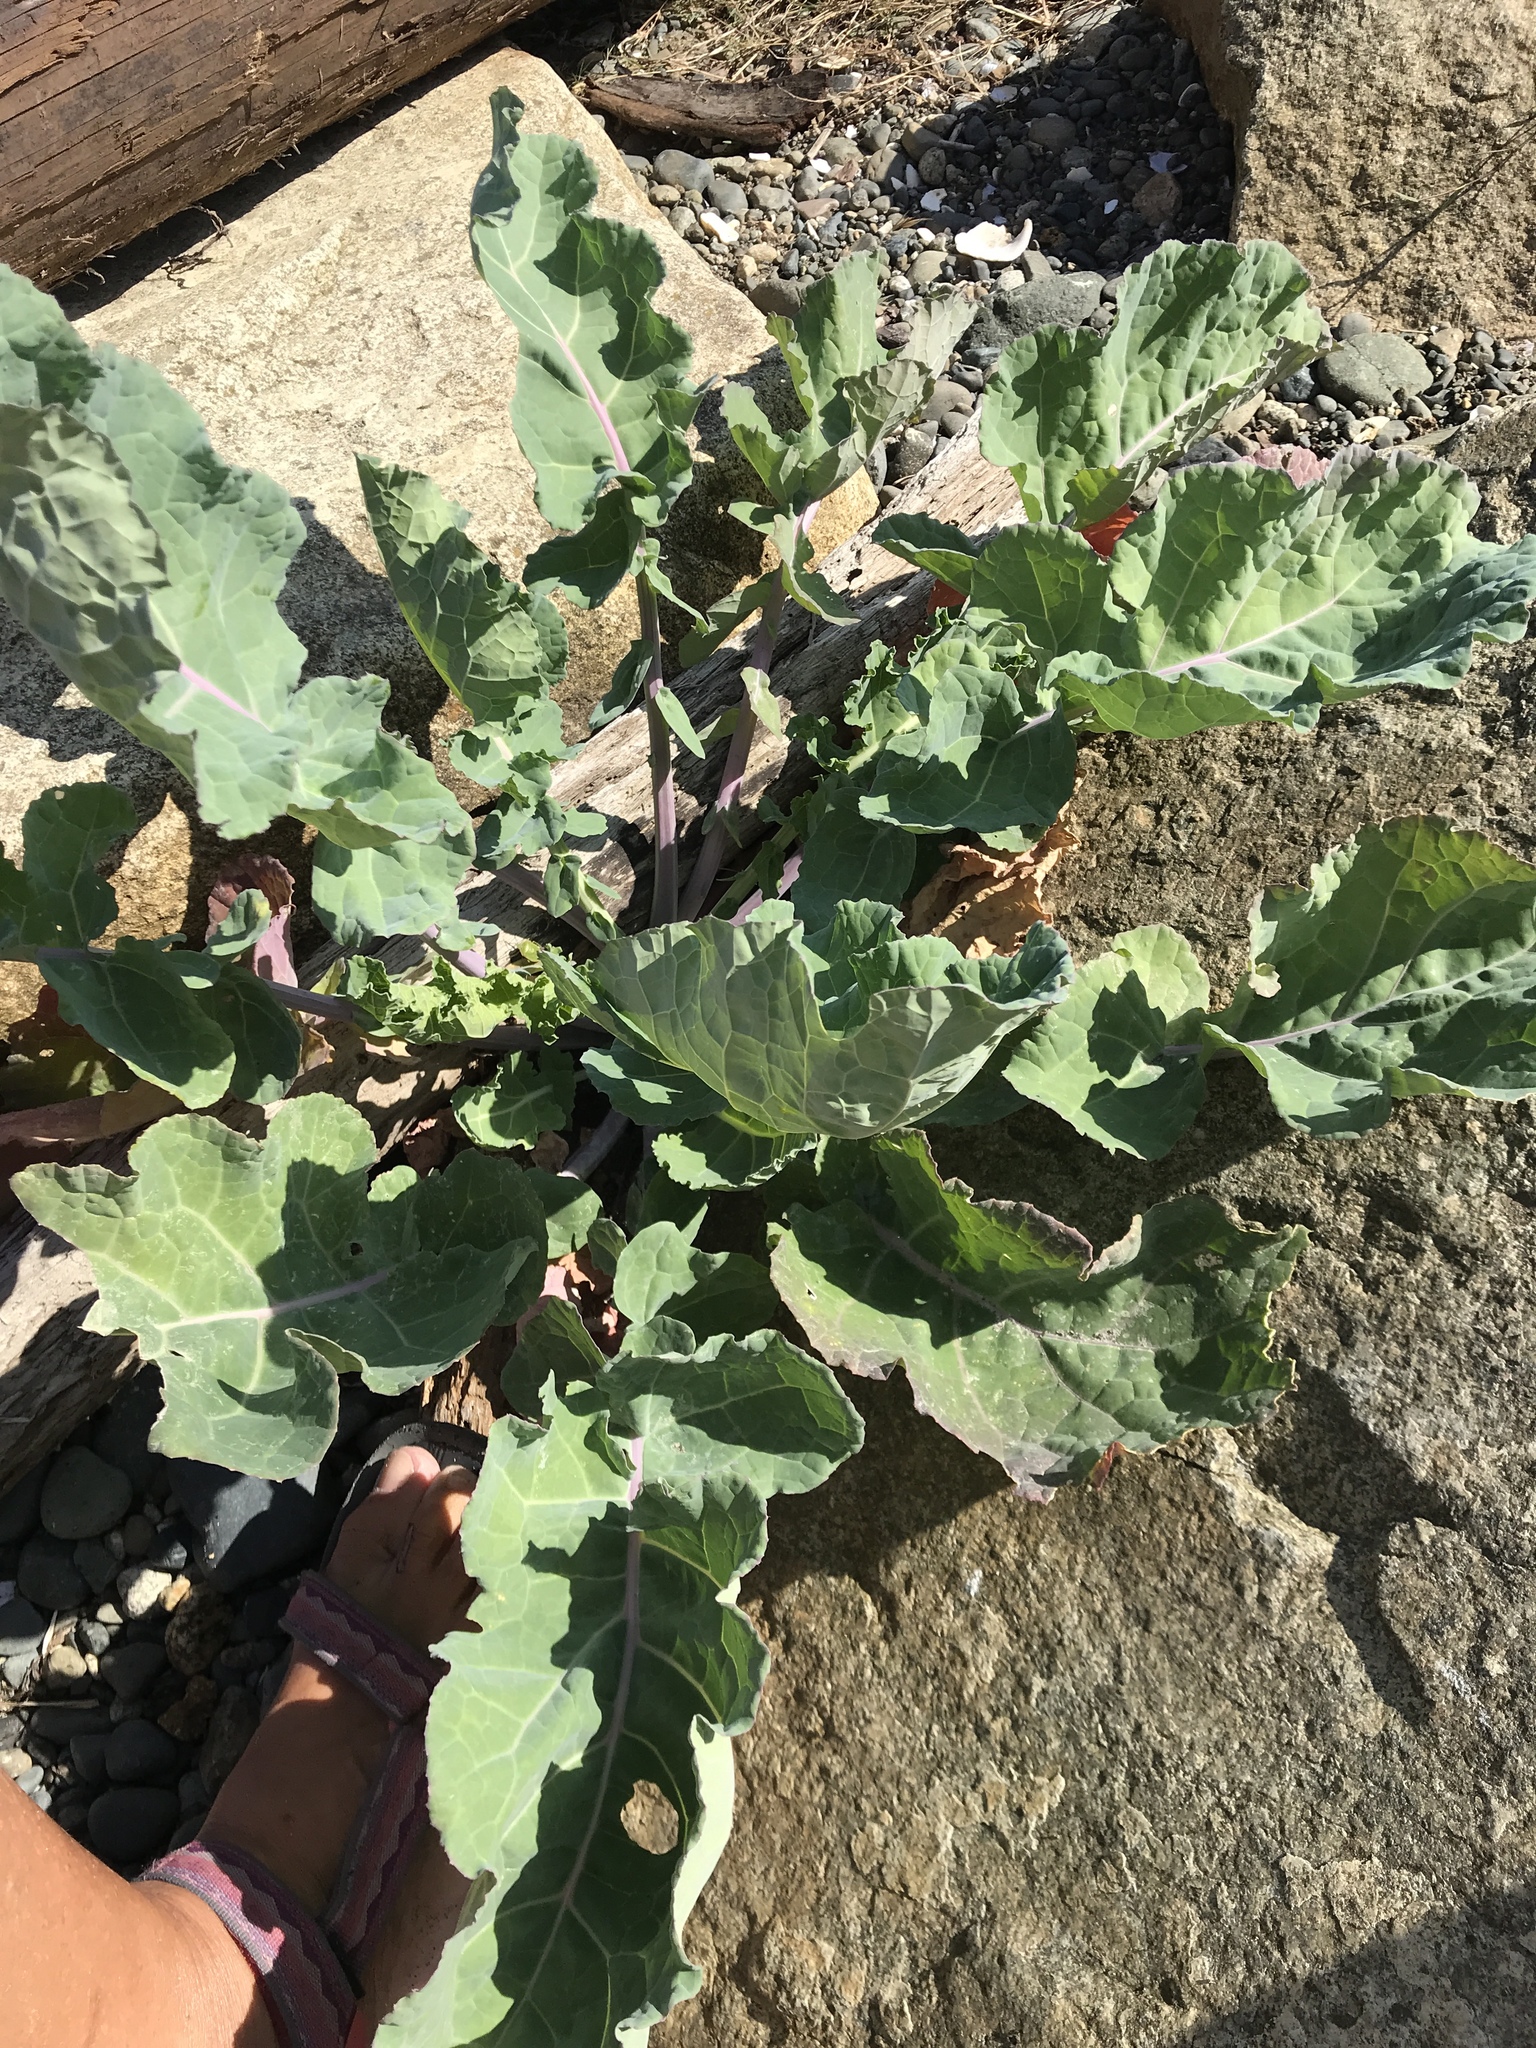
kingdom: Plantae
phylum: Tracheophyta
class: Magnoliopsida
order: Brassicales
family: Brassicaceae
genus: Brassica
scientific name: Brassica oleracea
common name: Cabbage
